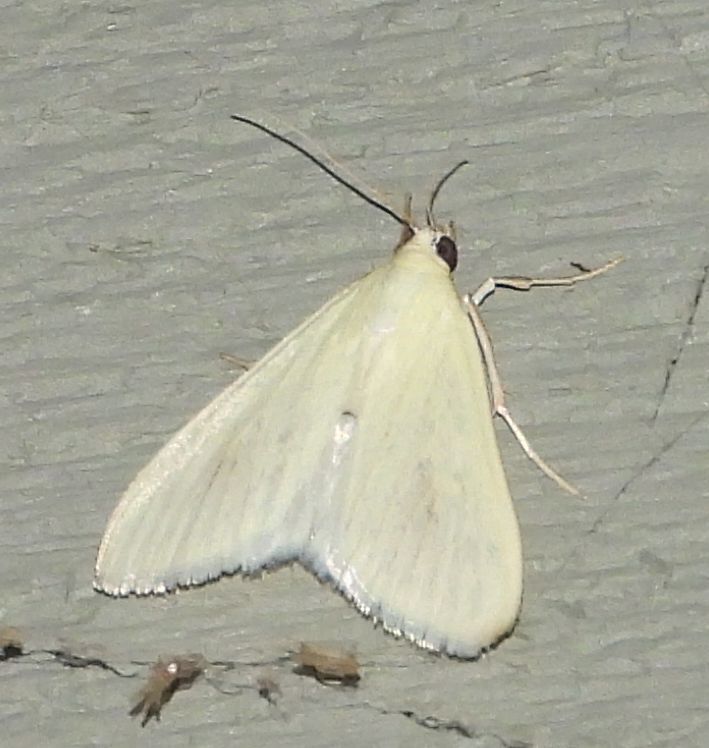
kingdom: Animalia
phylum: Arthropoda
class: Insecta
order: Lepidoptera
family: Crambidae
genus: Sitochroa
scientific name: Sitochroa palealis
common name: Greenish-yellow sitochroa moth
